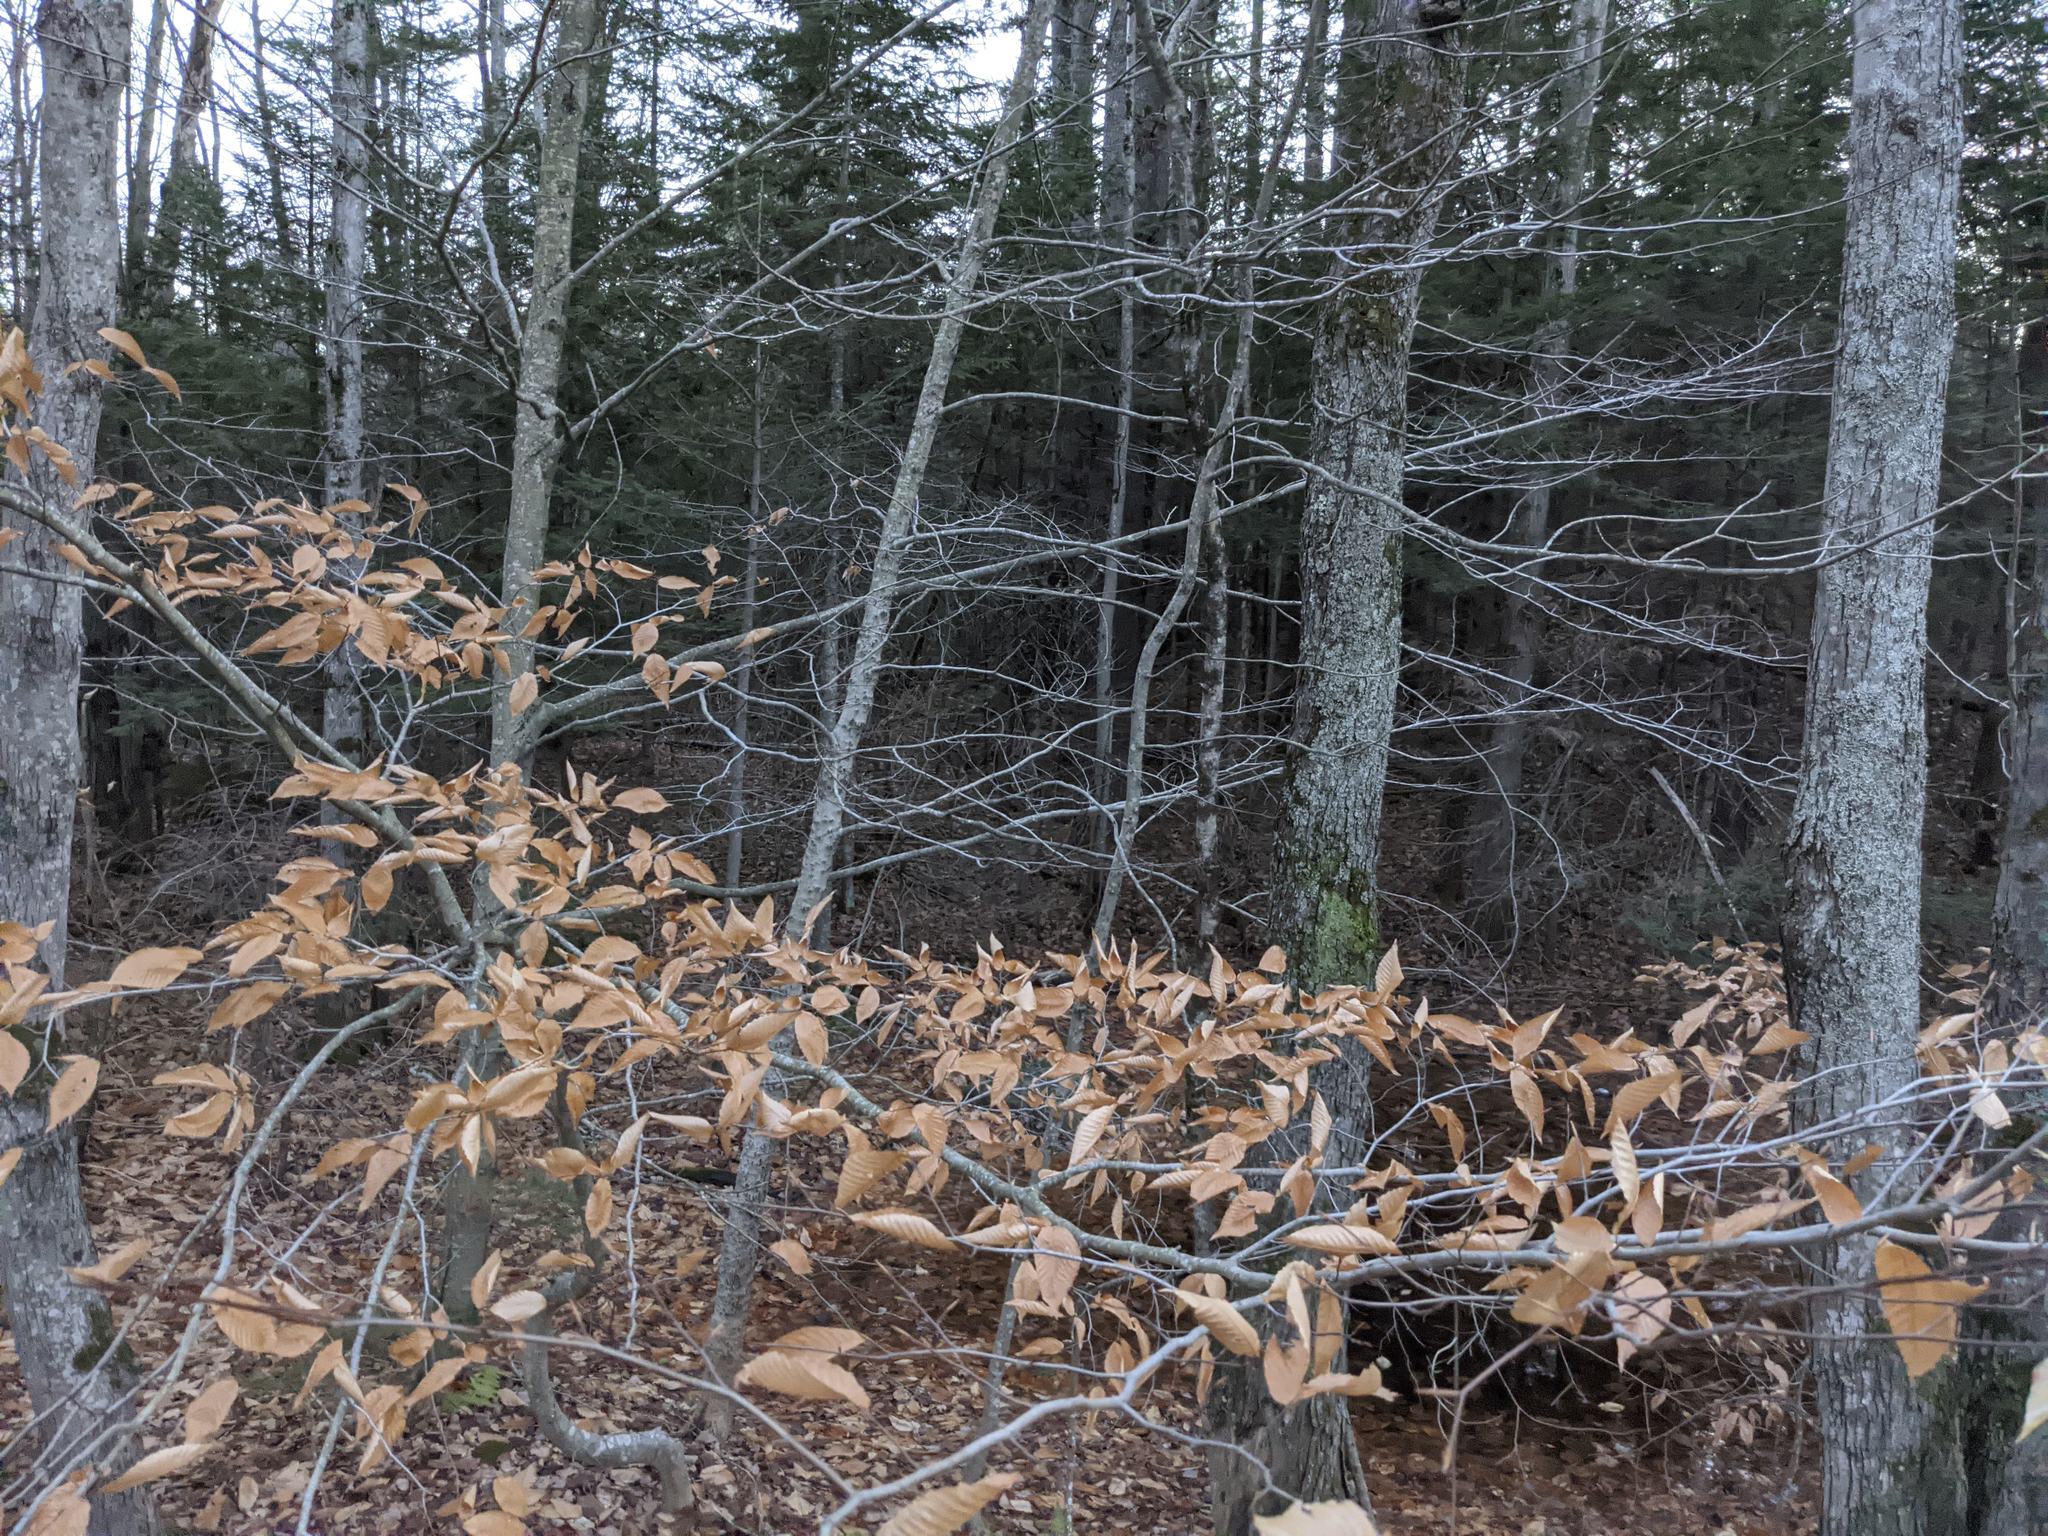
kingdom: Plantae
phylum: Tracheophyta
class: Magnoliopsida
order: Fagales
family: Fagaceae
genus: Fagus
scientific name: Fagus grandifolia
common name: American beech
